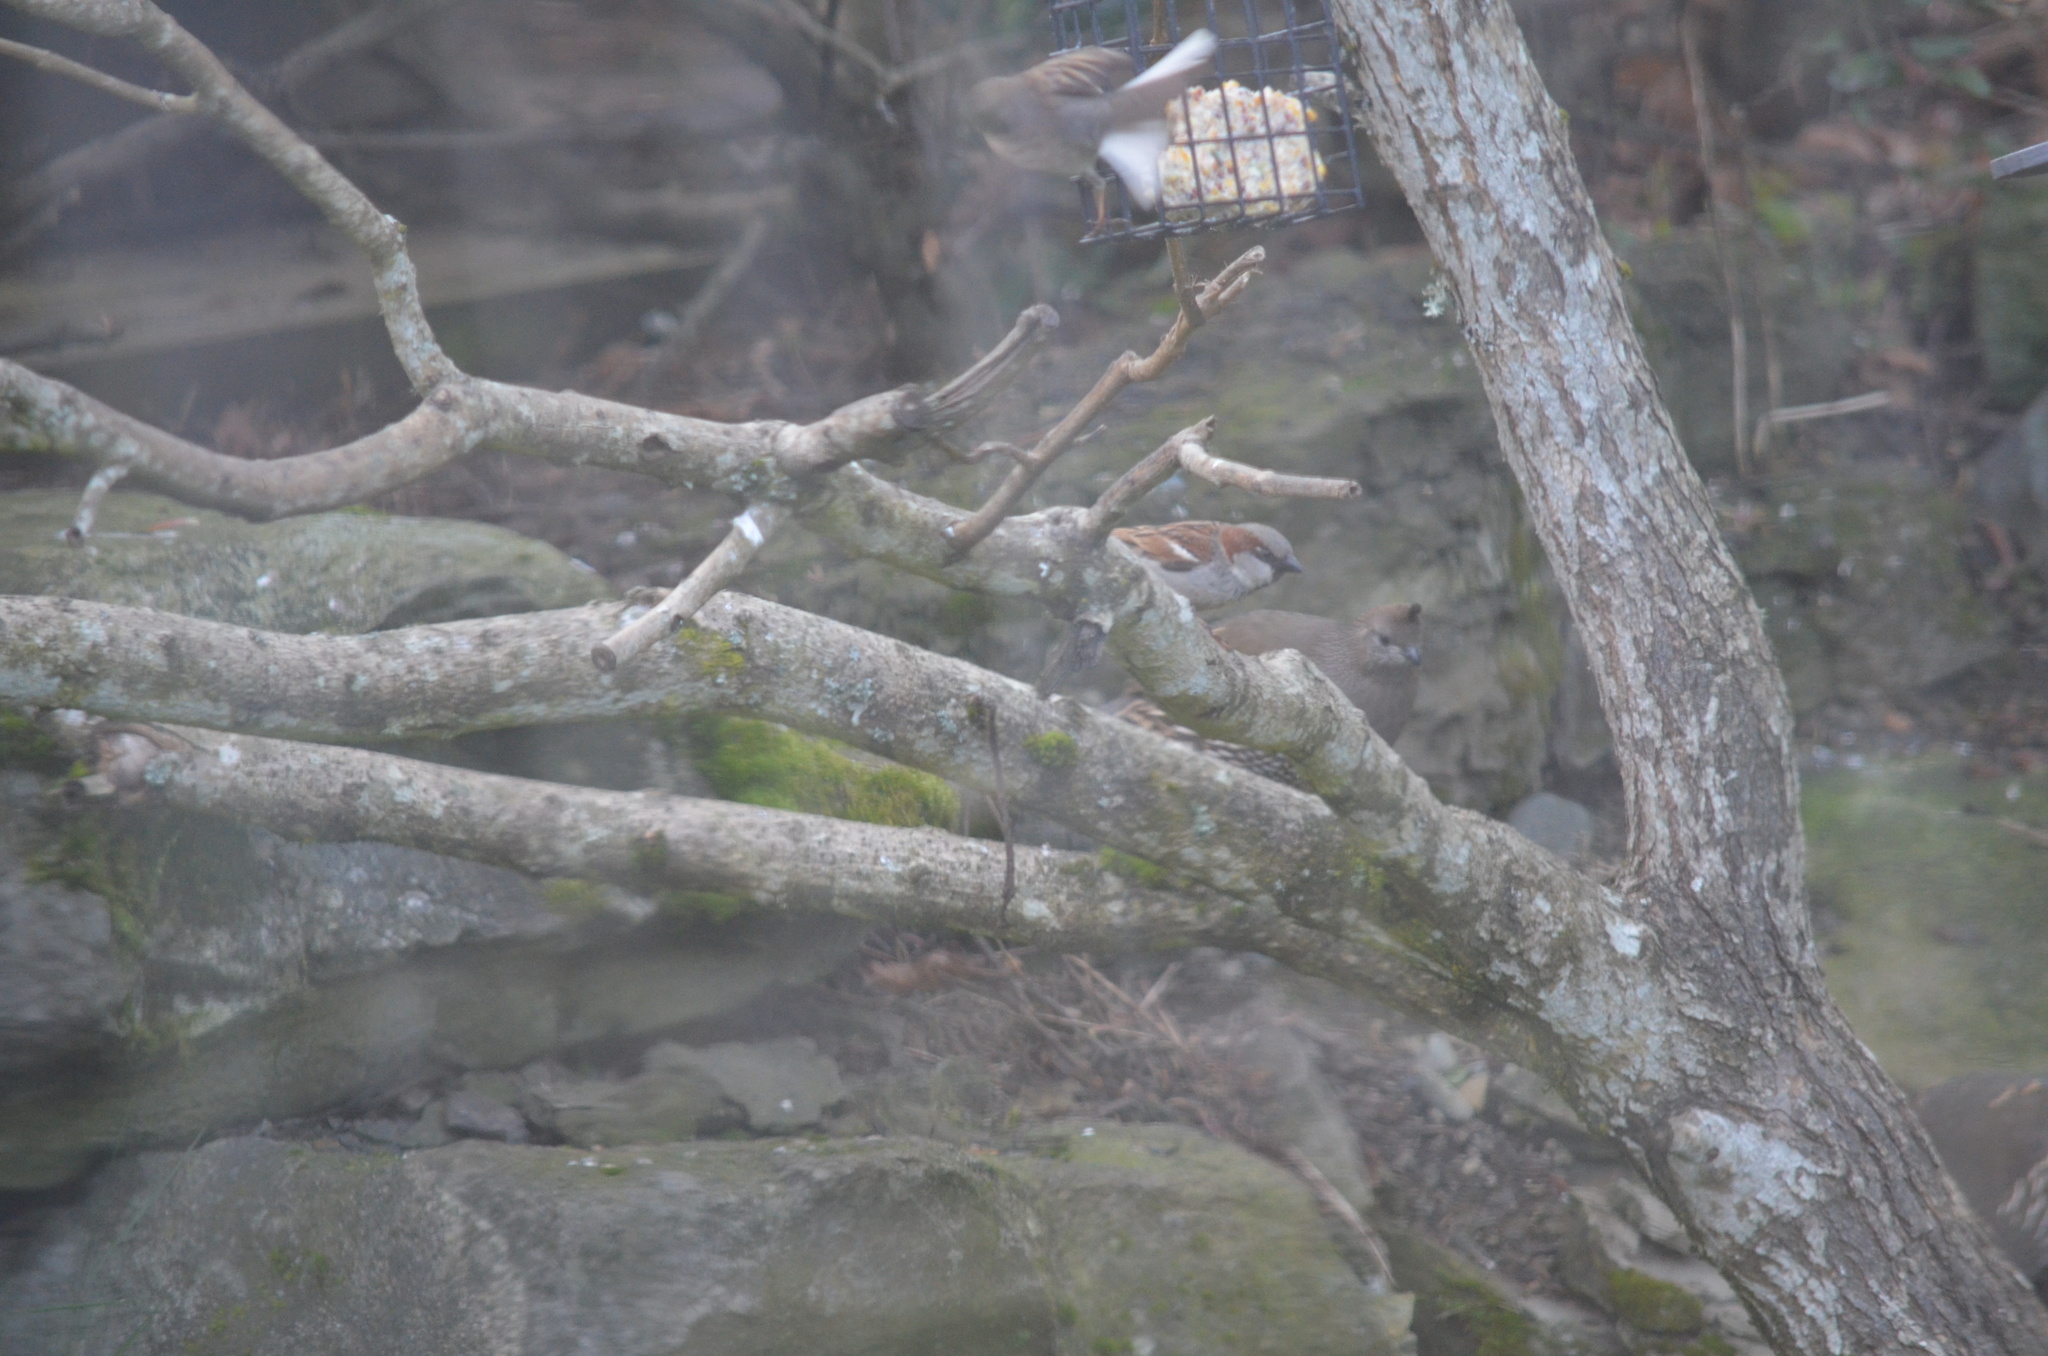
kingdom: Animalia
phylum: Chordata
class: Aves
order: Passeriformes
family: Passeridae
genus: Passer
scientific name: Passer domesticus
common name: House sparrow
